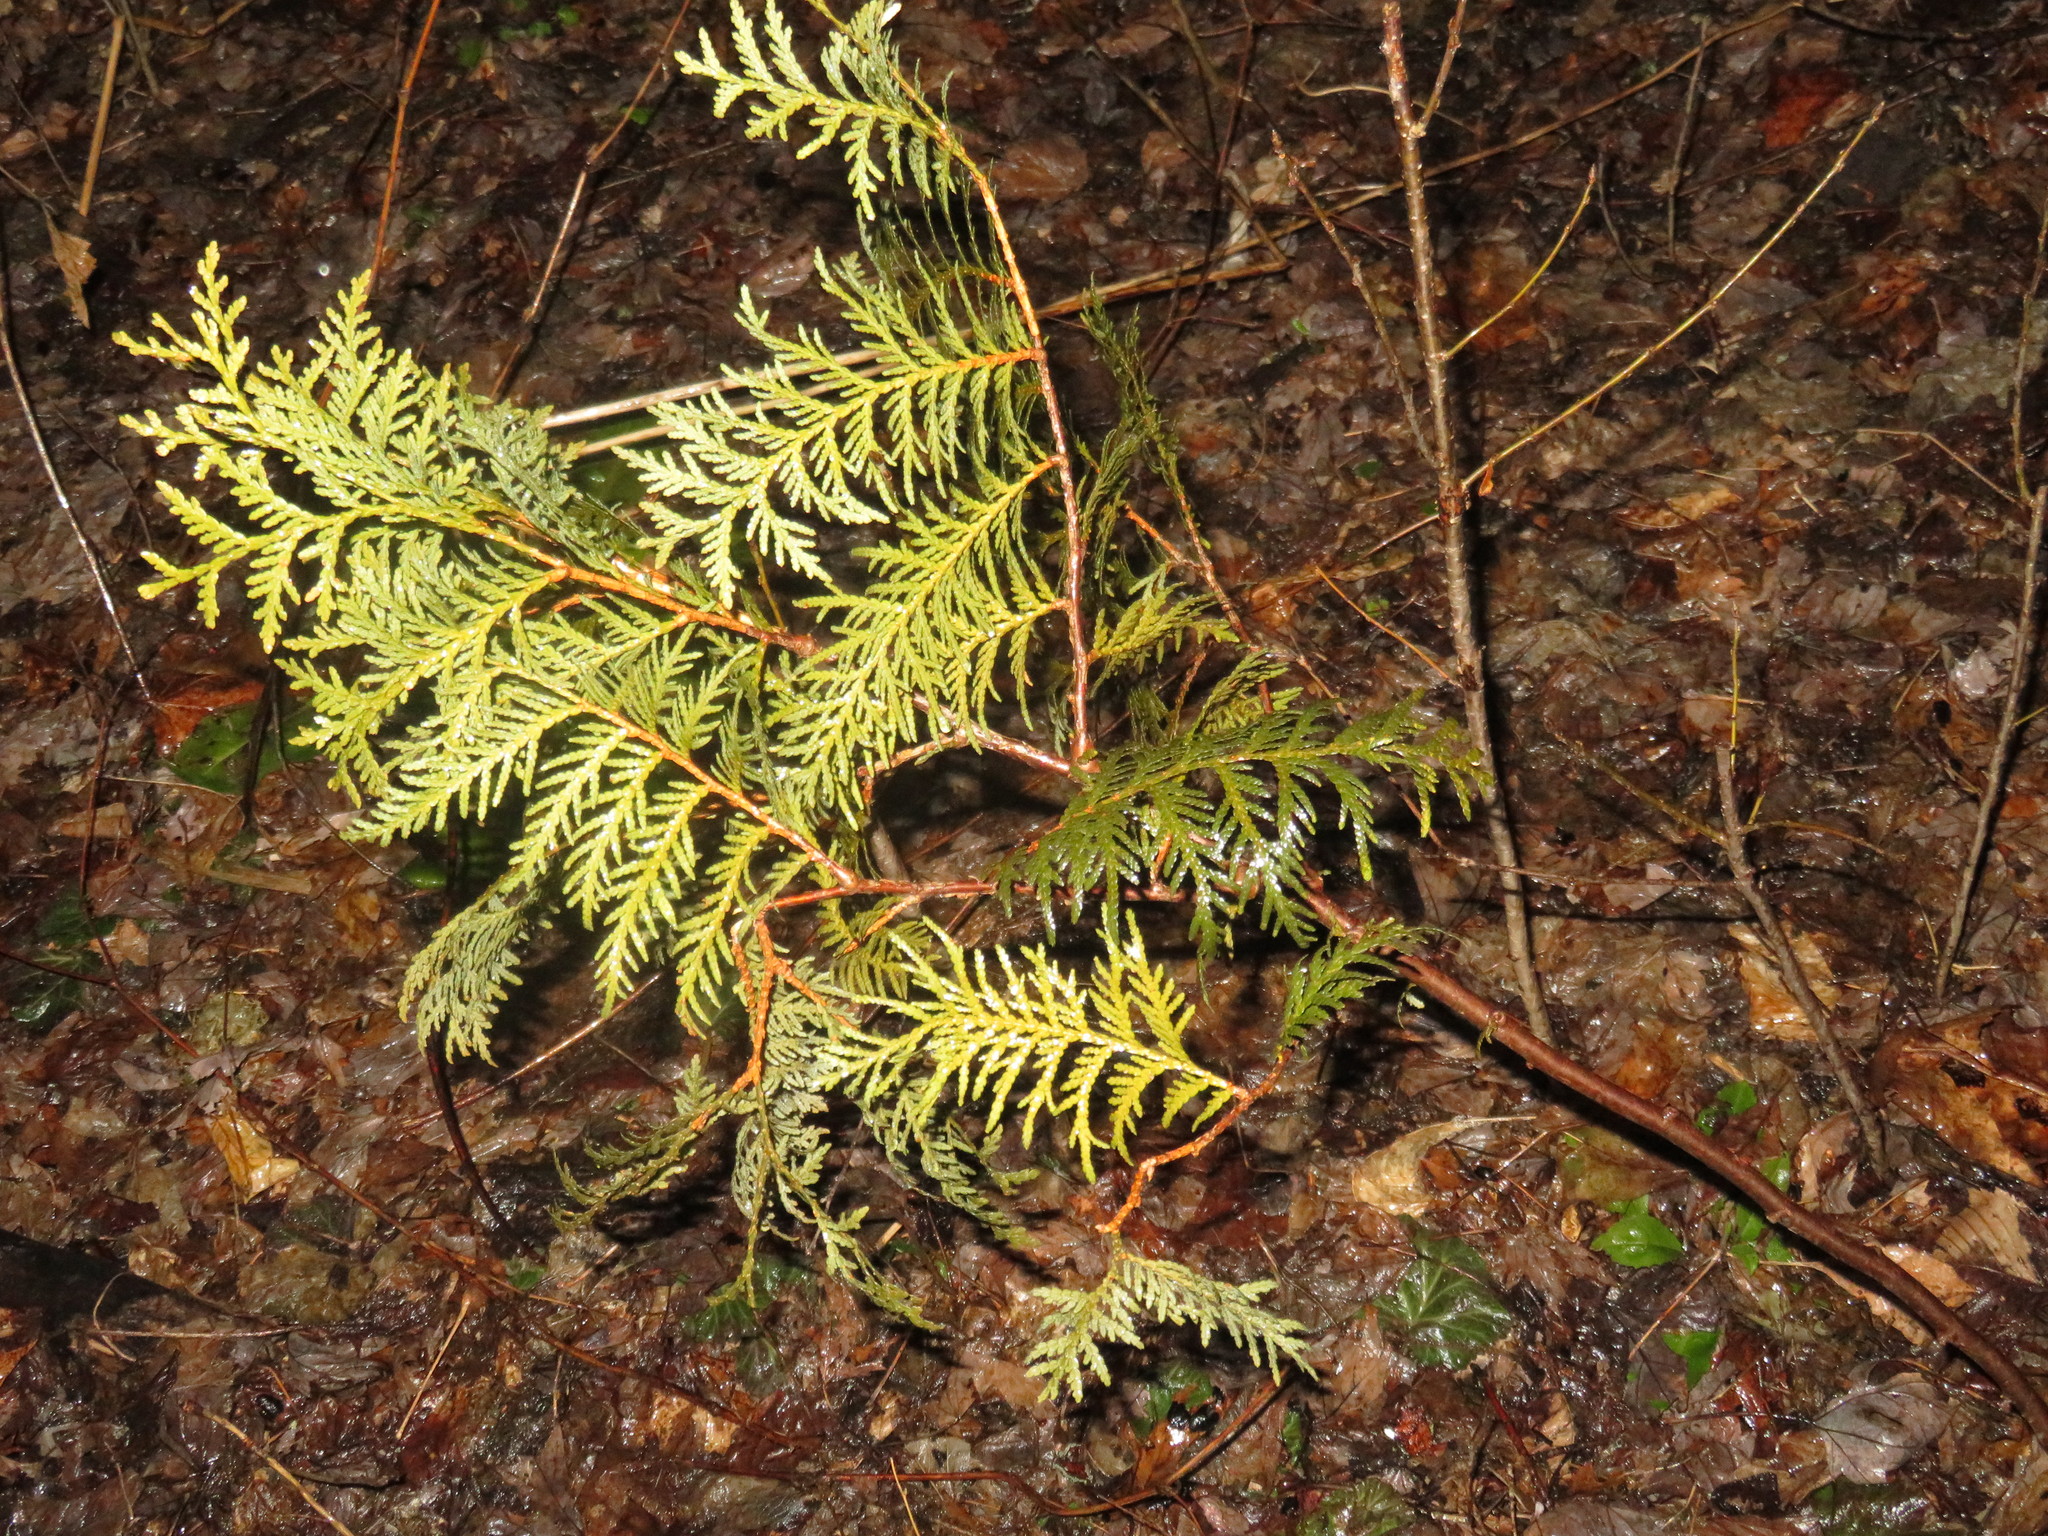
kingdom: Plantae
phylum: Tracheophyta
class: Pinopsida
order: Pinales
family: Cupressaceae
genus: Thuja
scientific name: Thuja occidentalis
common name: Northern white-cedar
